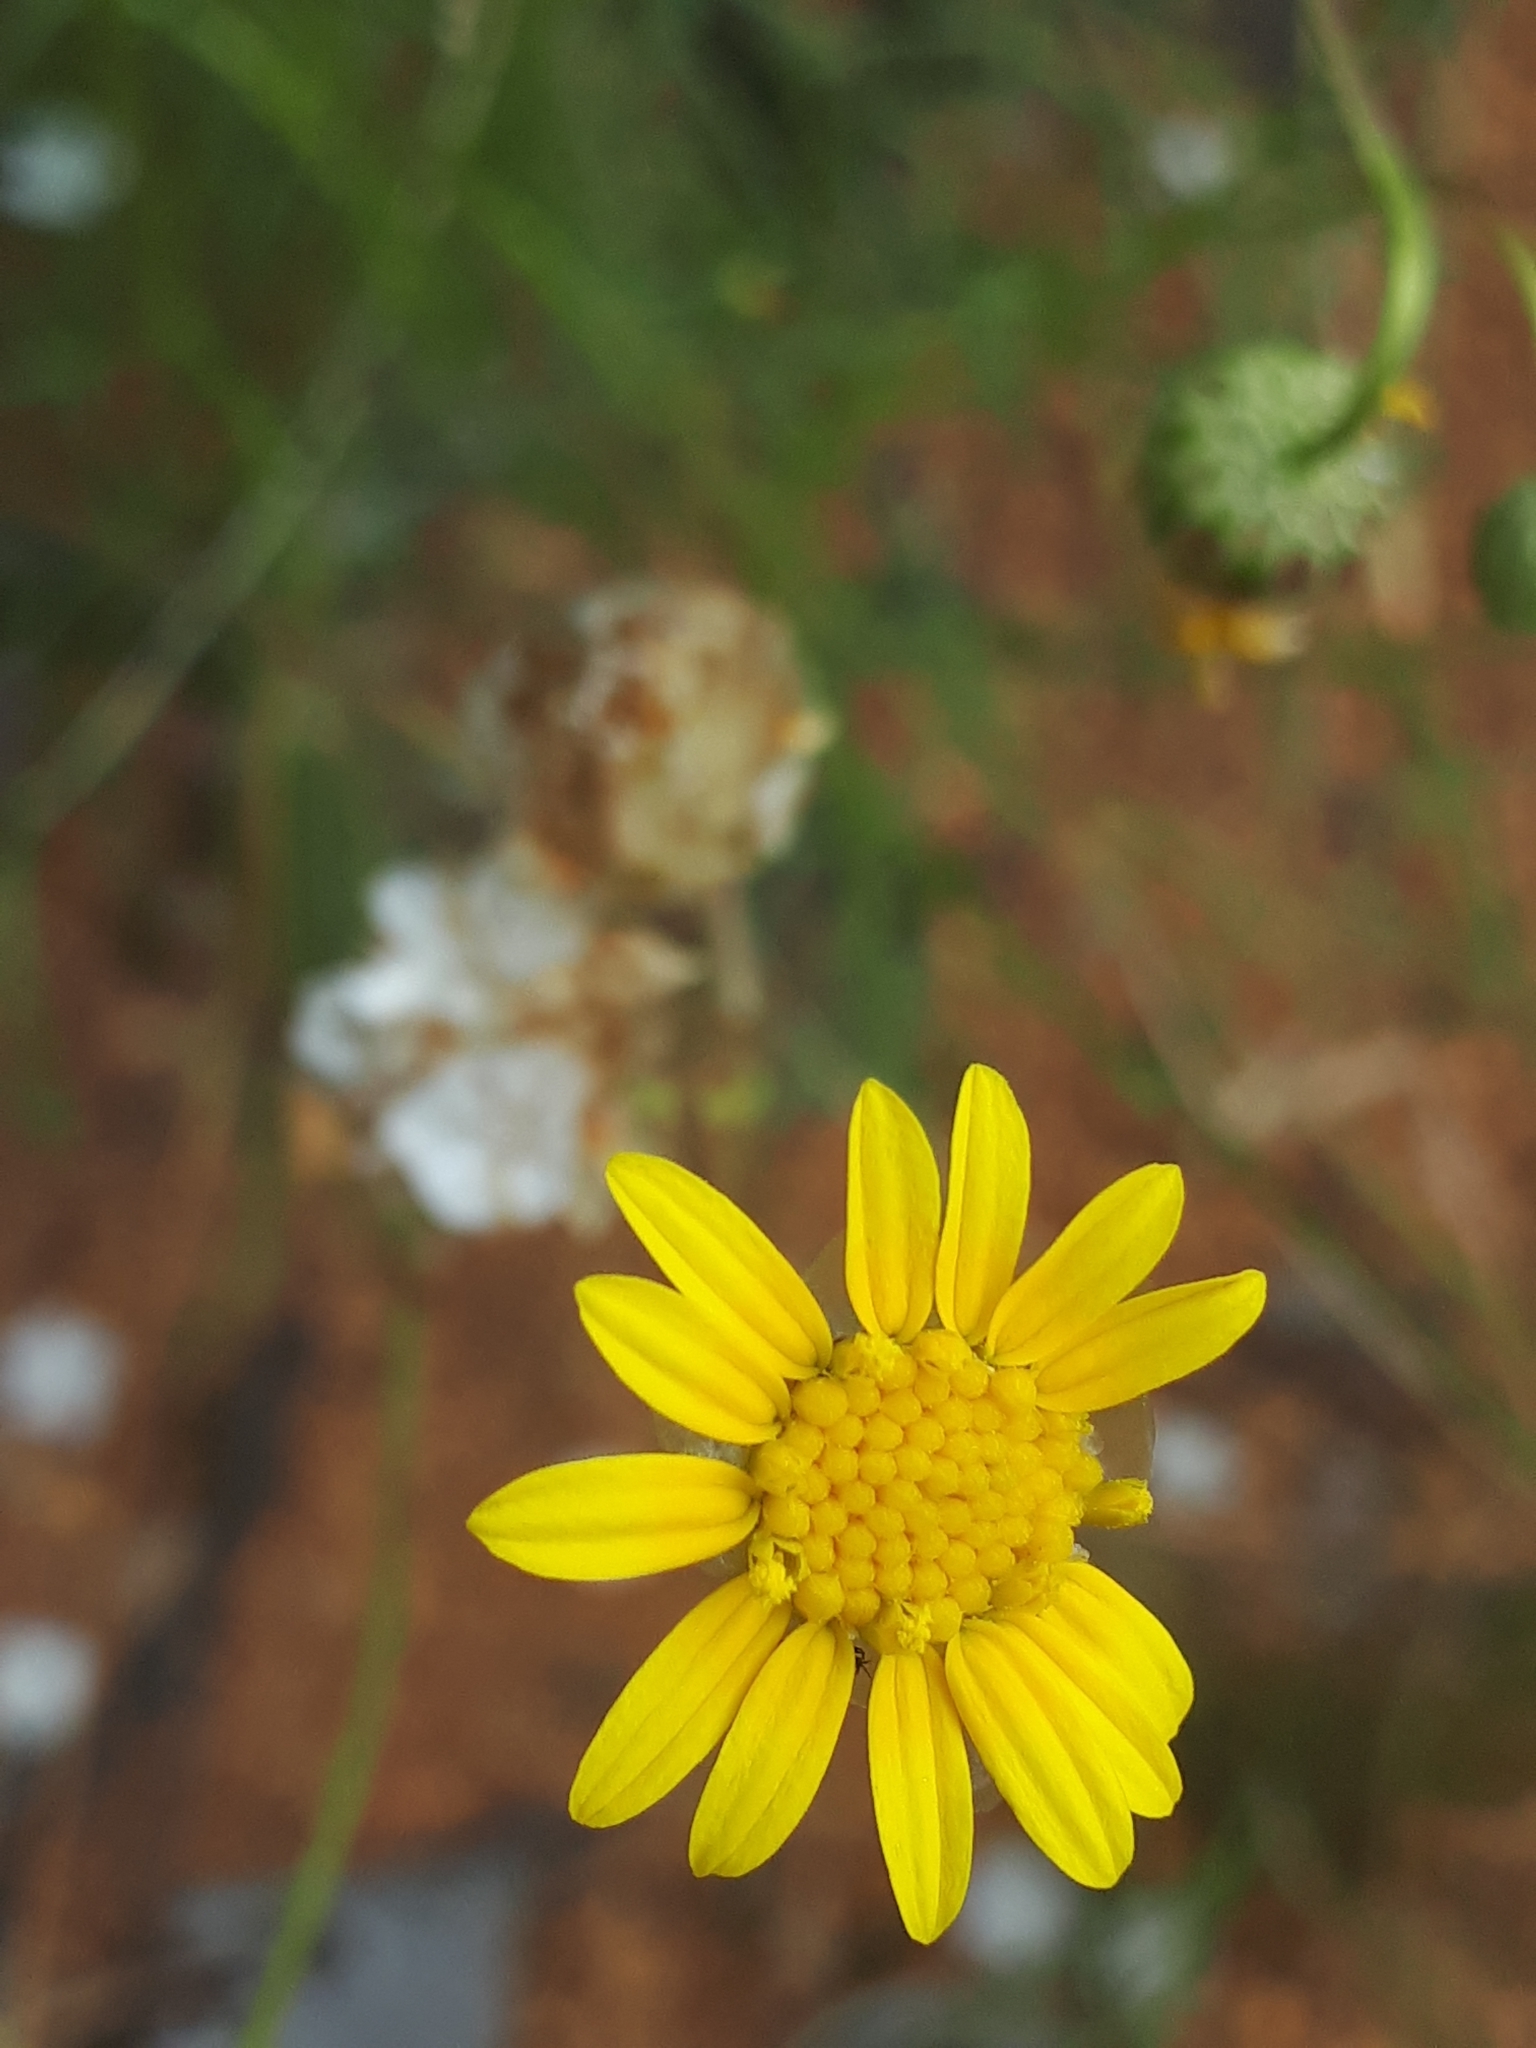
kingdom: Plantae
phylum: Tracheophyta
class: Magnoliopsida
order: Asterales
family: Asteraceae
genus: Ursinia
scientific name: Ursinia nana
